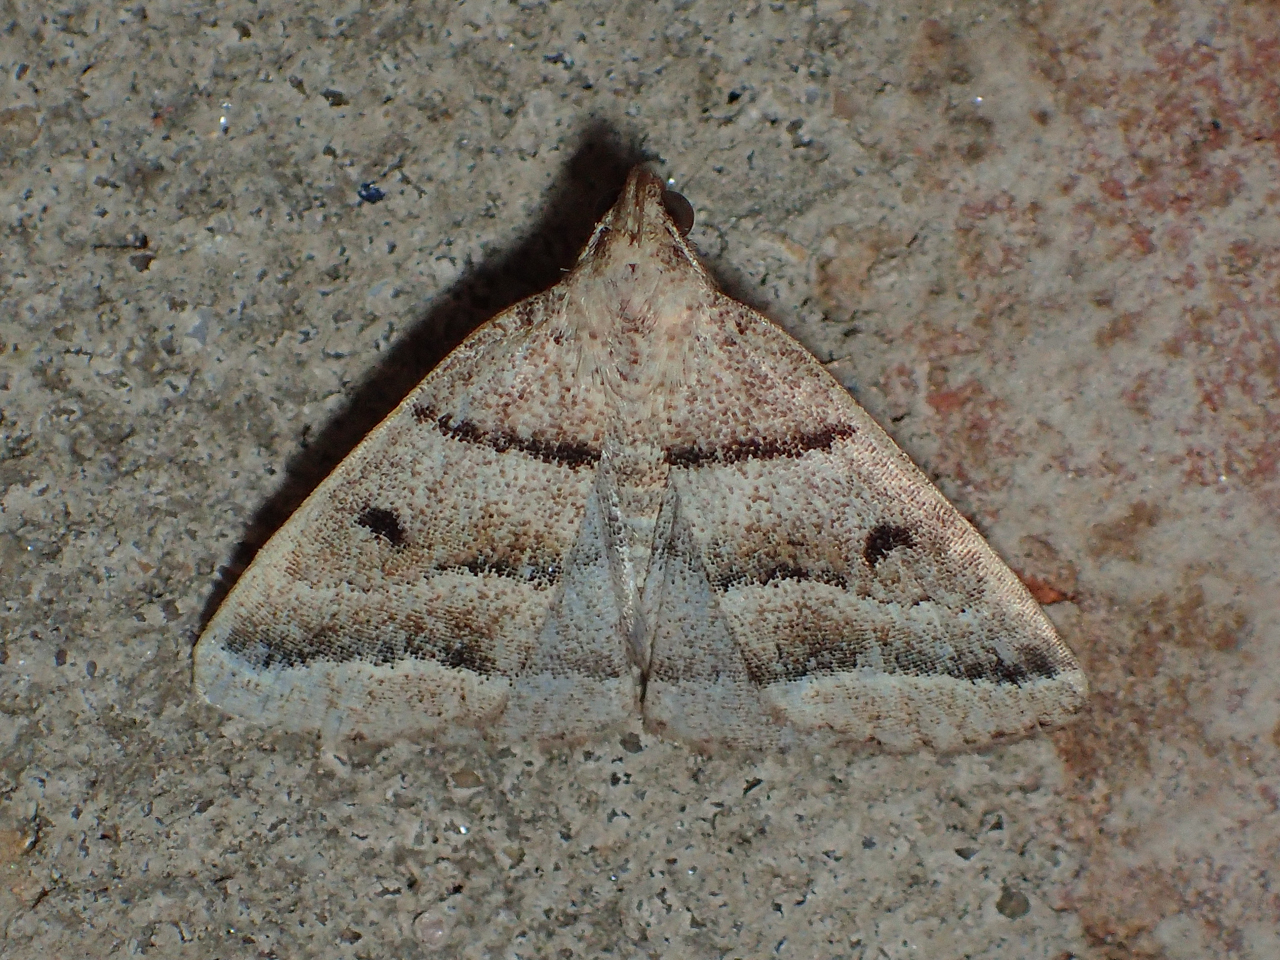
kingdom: Animalia
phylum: Arthropoda
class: Insecta
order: Lepidoptera
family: Erebidae
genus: Zanclognatha
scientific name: Zanclognatha atrilineella
